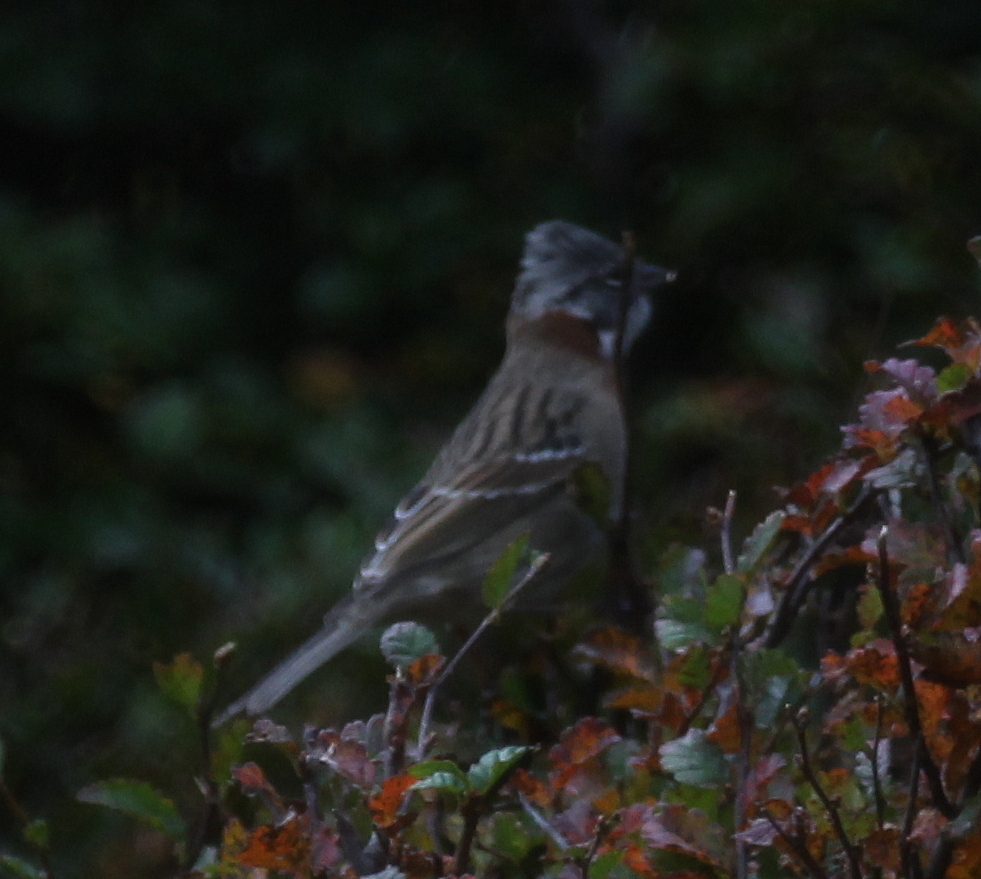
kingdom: Animalia
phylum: Chordata
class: Aves
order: Passeriformes
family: Passerellidae
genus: Zonotrichia
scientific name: Zonotrichia capensis
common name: Rufous-collared sparrow
